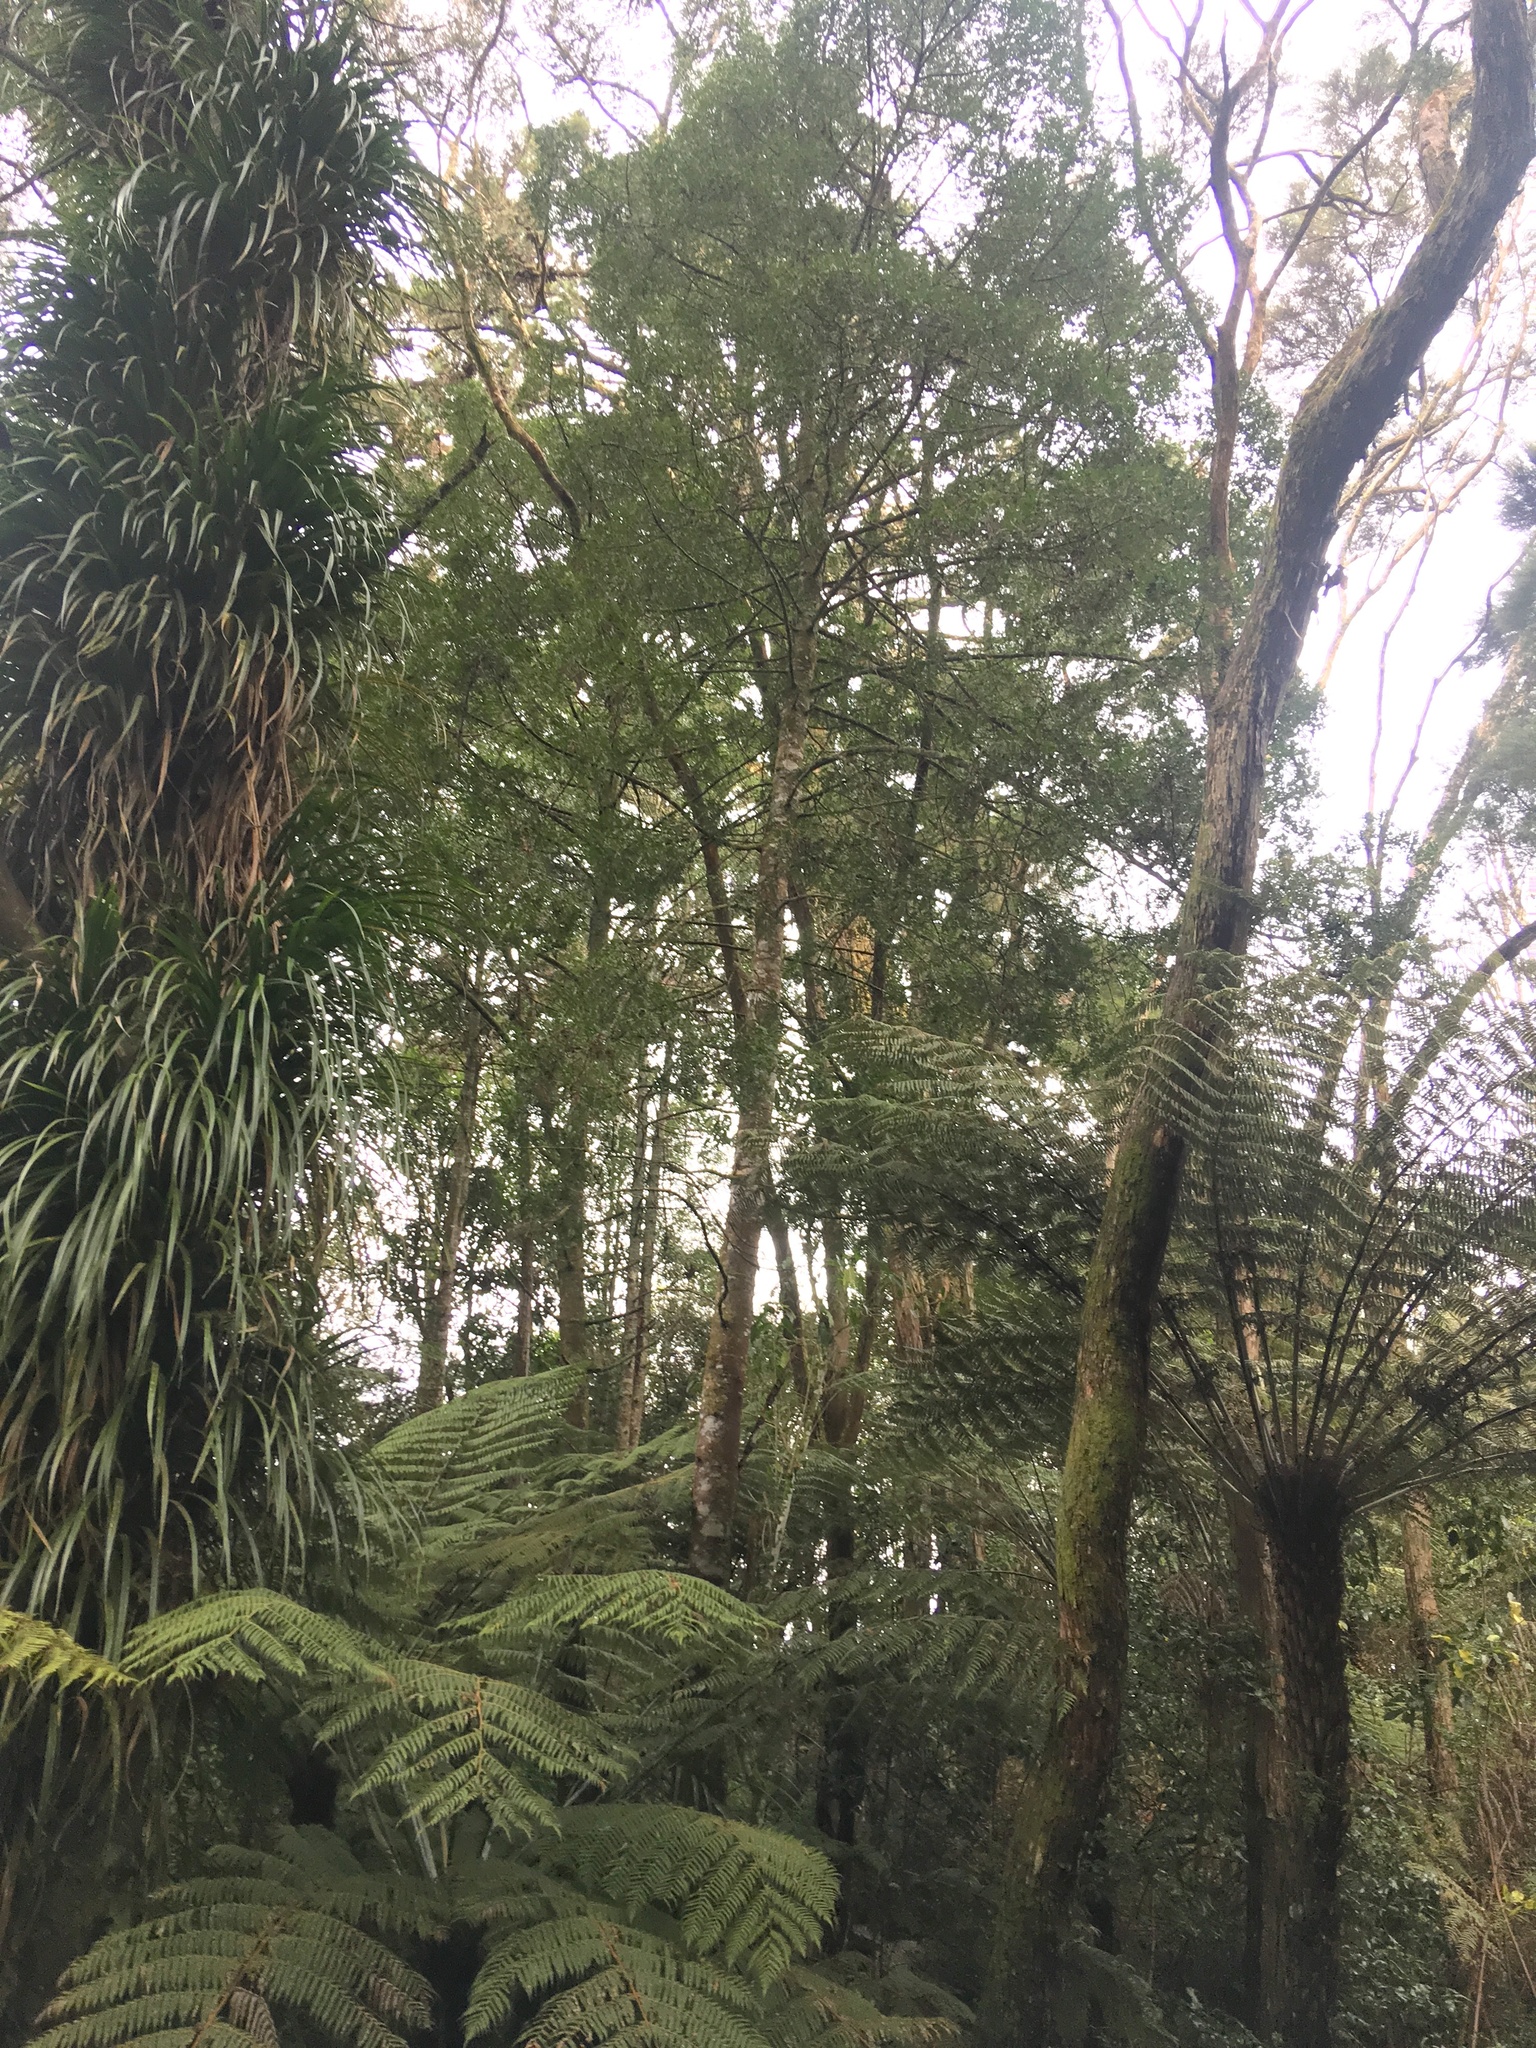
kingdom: Plantae
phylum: Tracheophyta
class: Pinopsida
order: Pinales
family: Phyllocladaceae
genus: Phyllocladus
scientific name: Phyllocladus trichomanoides
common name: Celery pine
